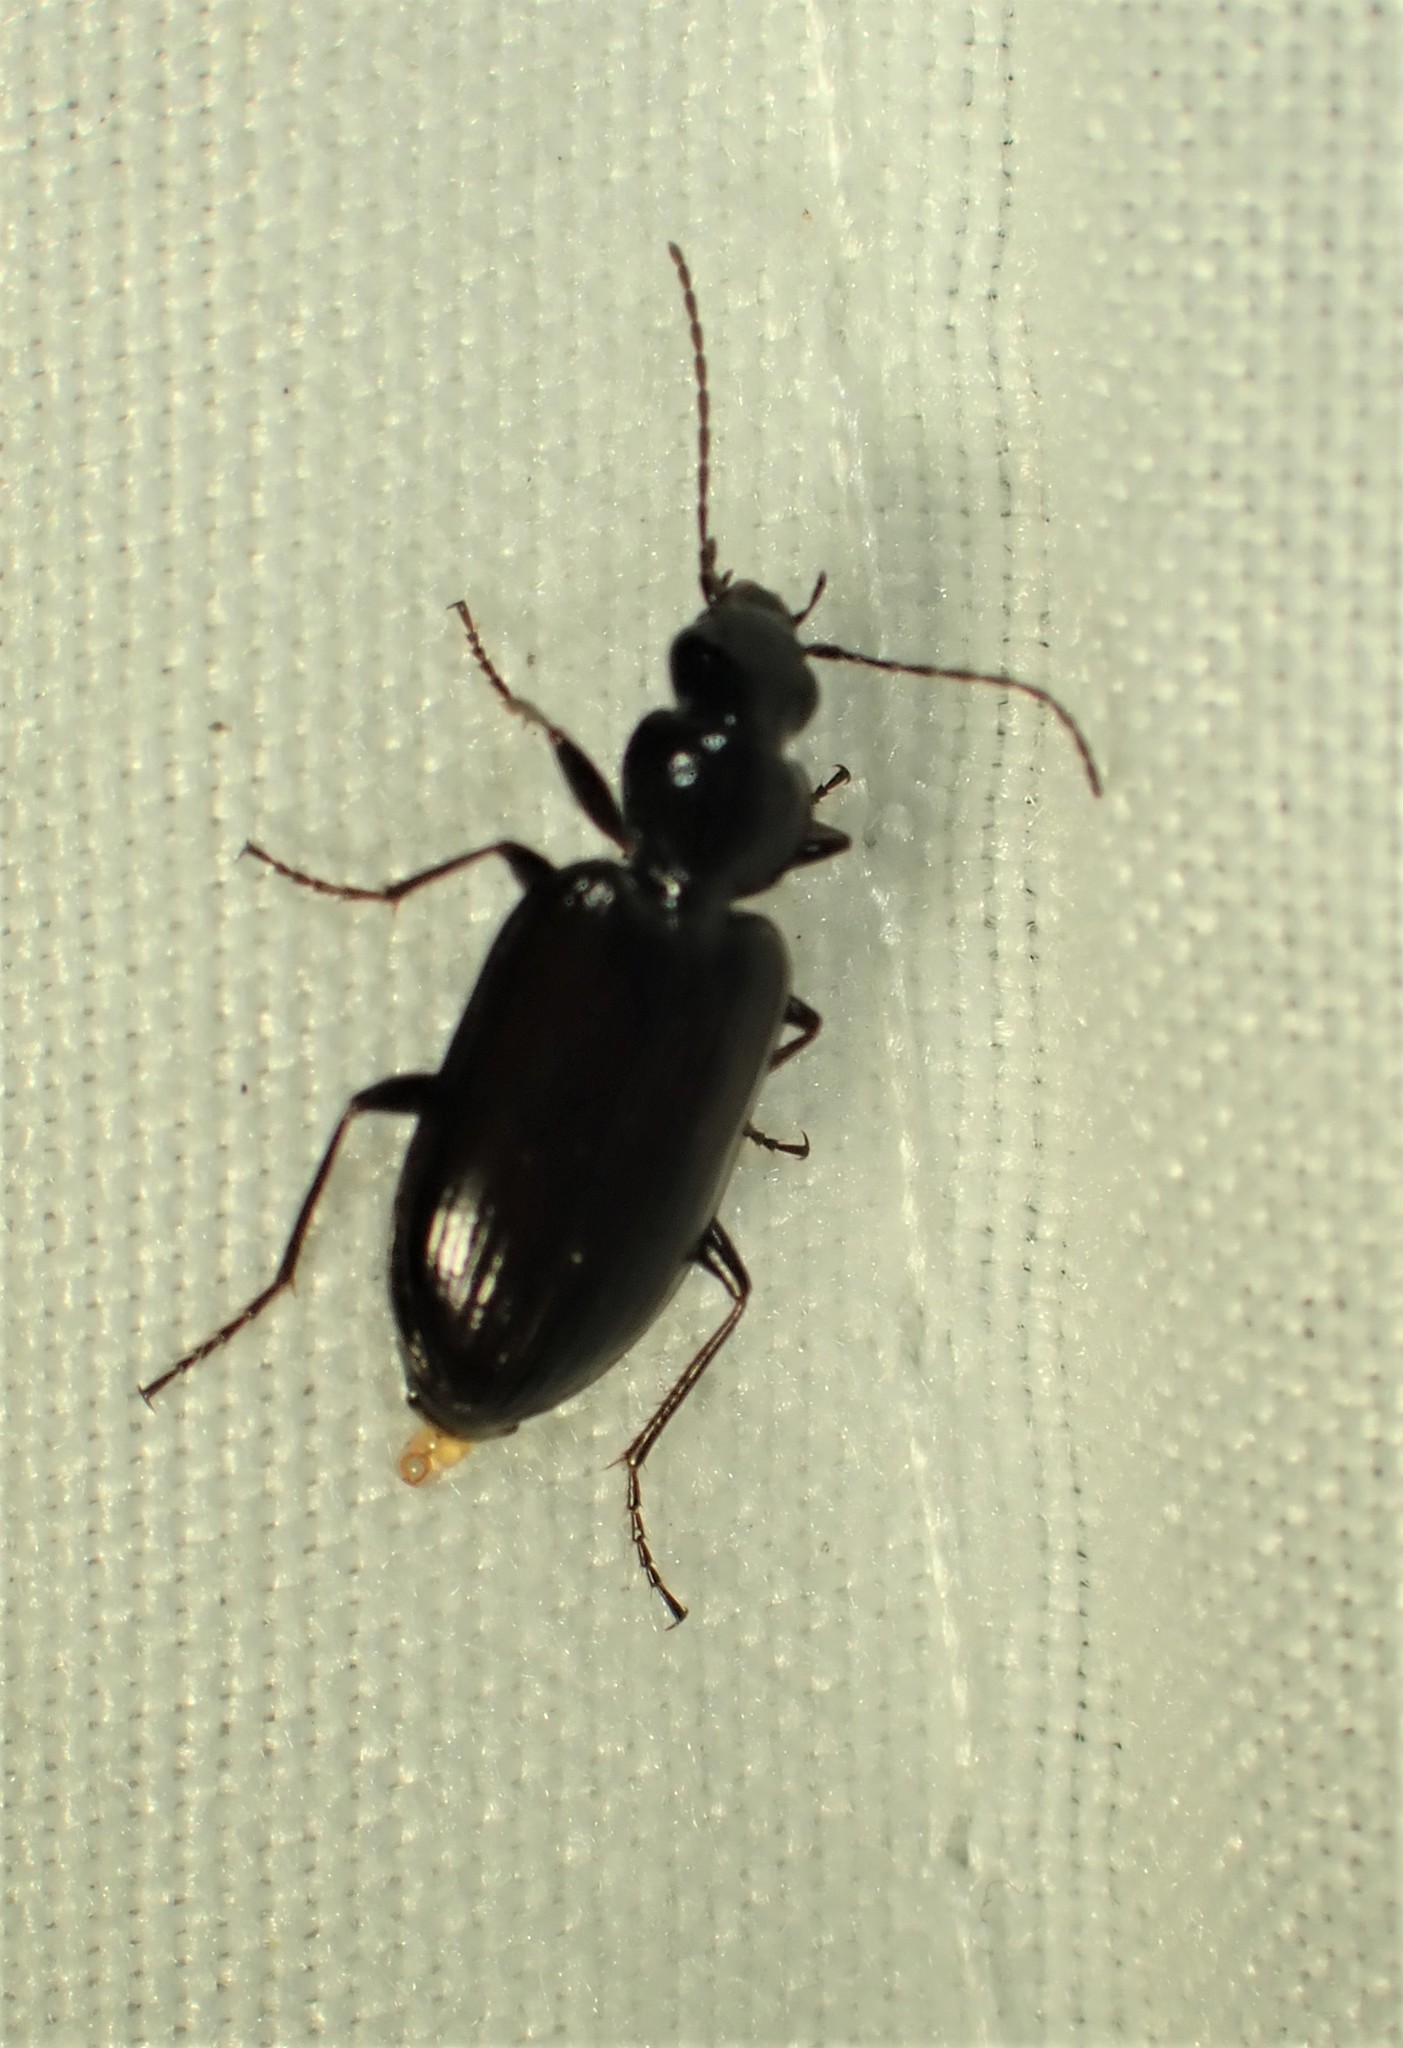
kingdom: Animalia
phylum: Arthropoda
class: Insecta
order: Coleoptera
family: Carabidae
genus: Sericoda
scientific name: Sericoda obsoleta
